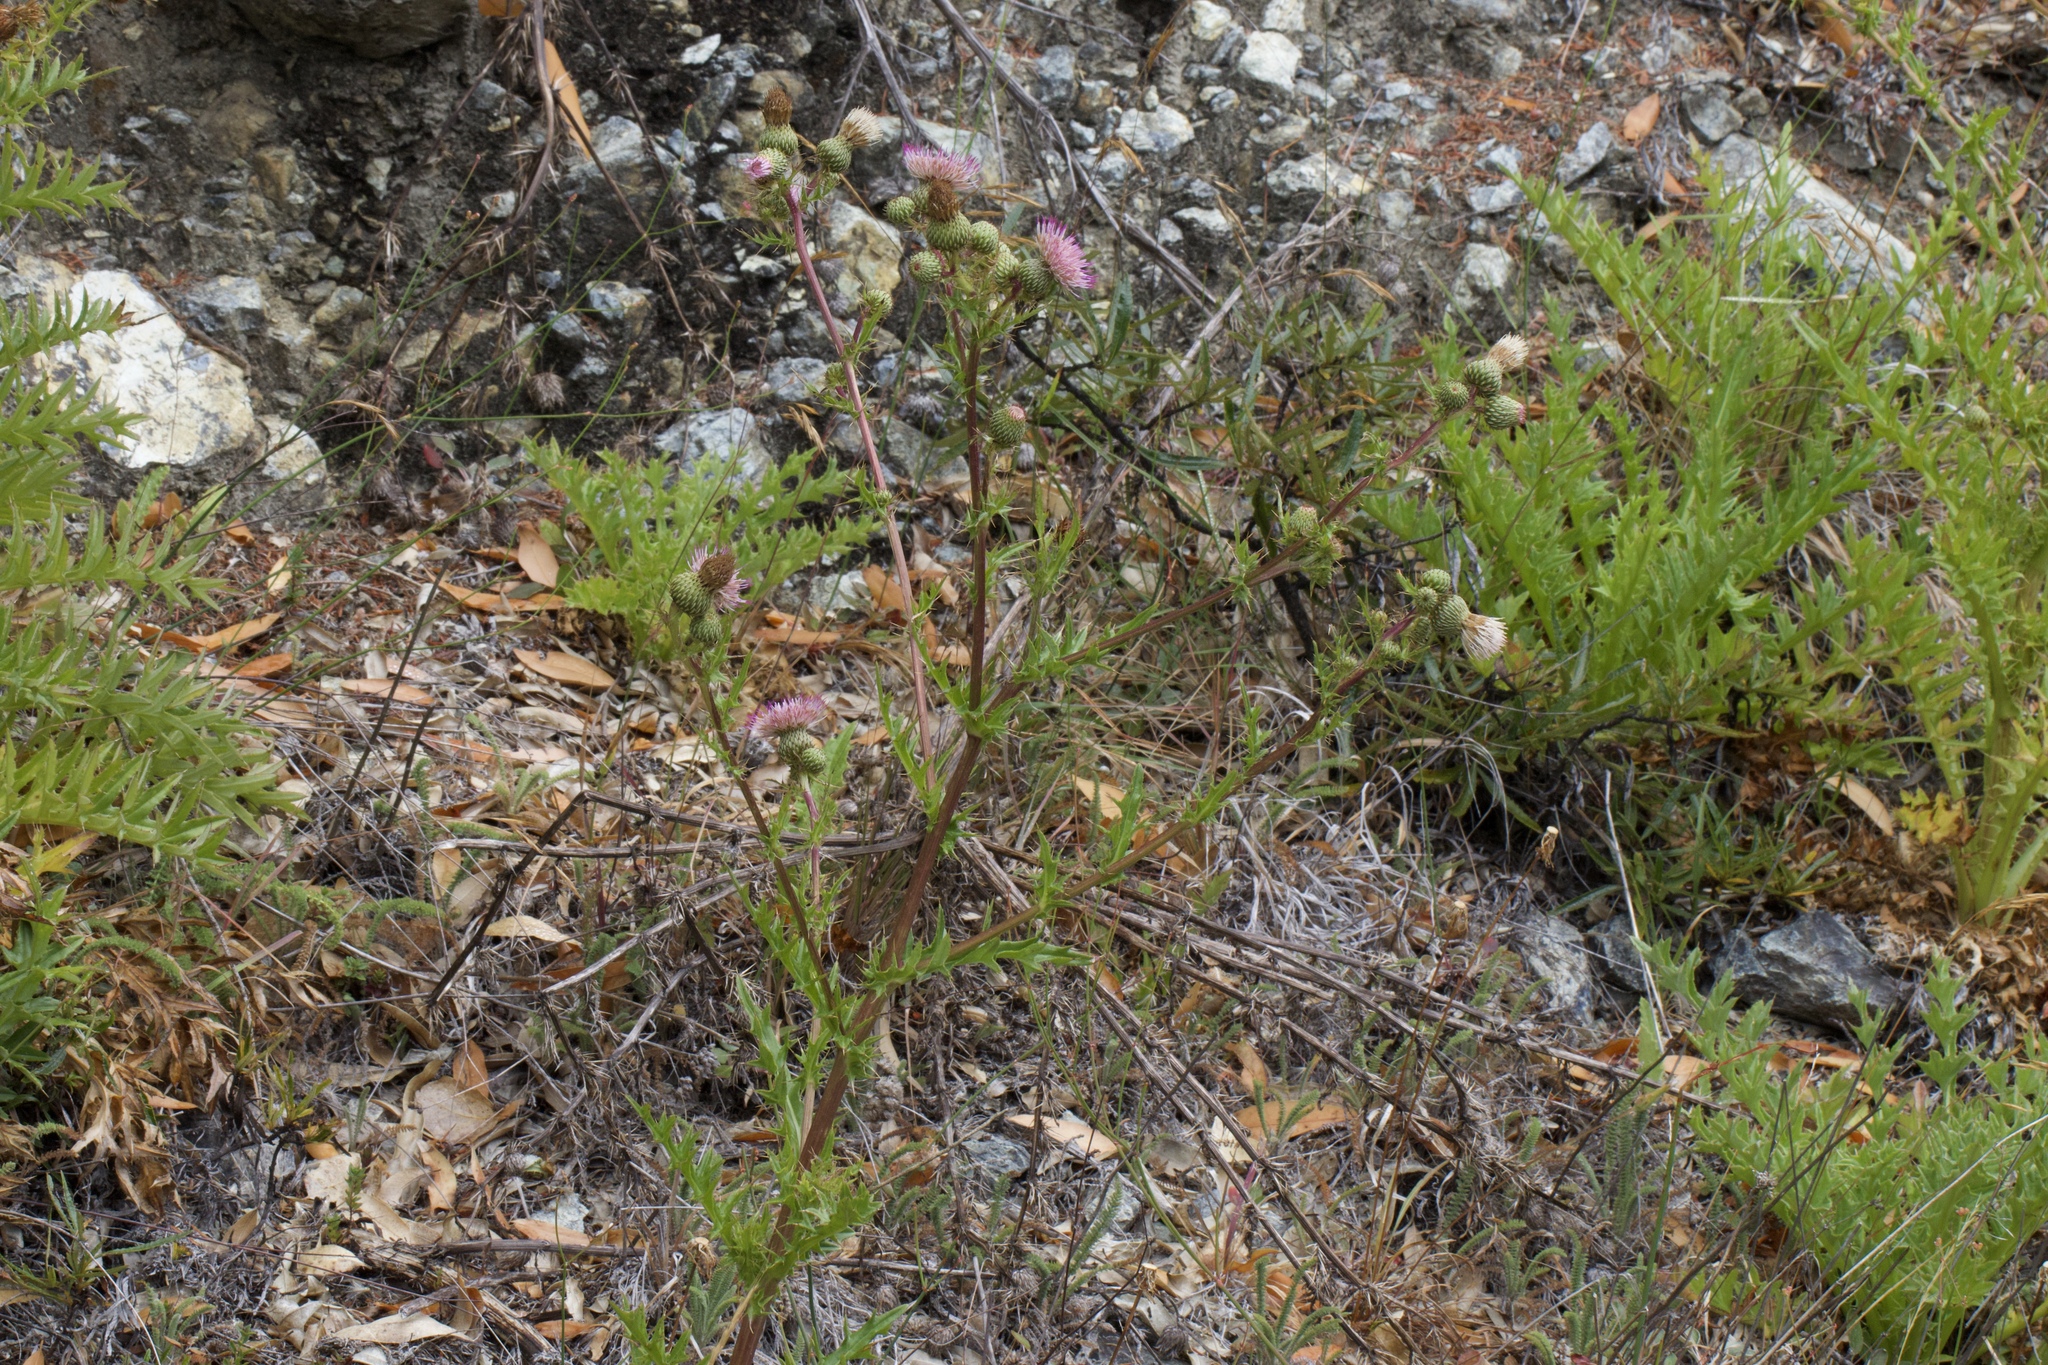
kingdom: Plantae
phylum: Tracheophyta
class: Magnoliopsida
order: Asterales
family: Asteraceae
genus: Cirsium
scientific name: Cirsium hydrophilum
